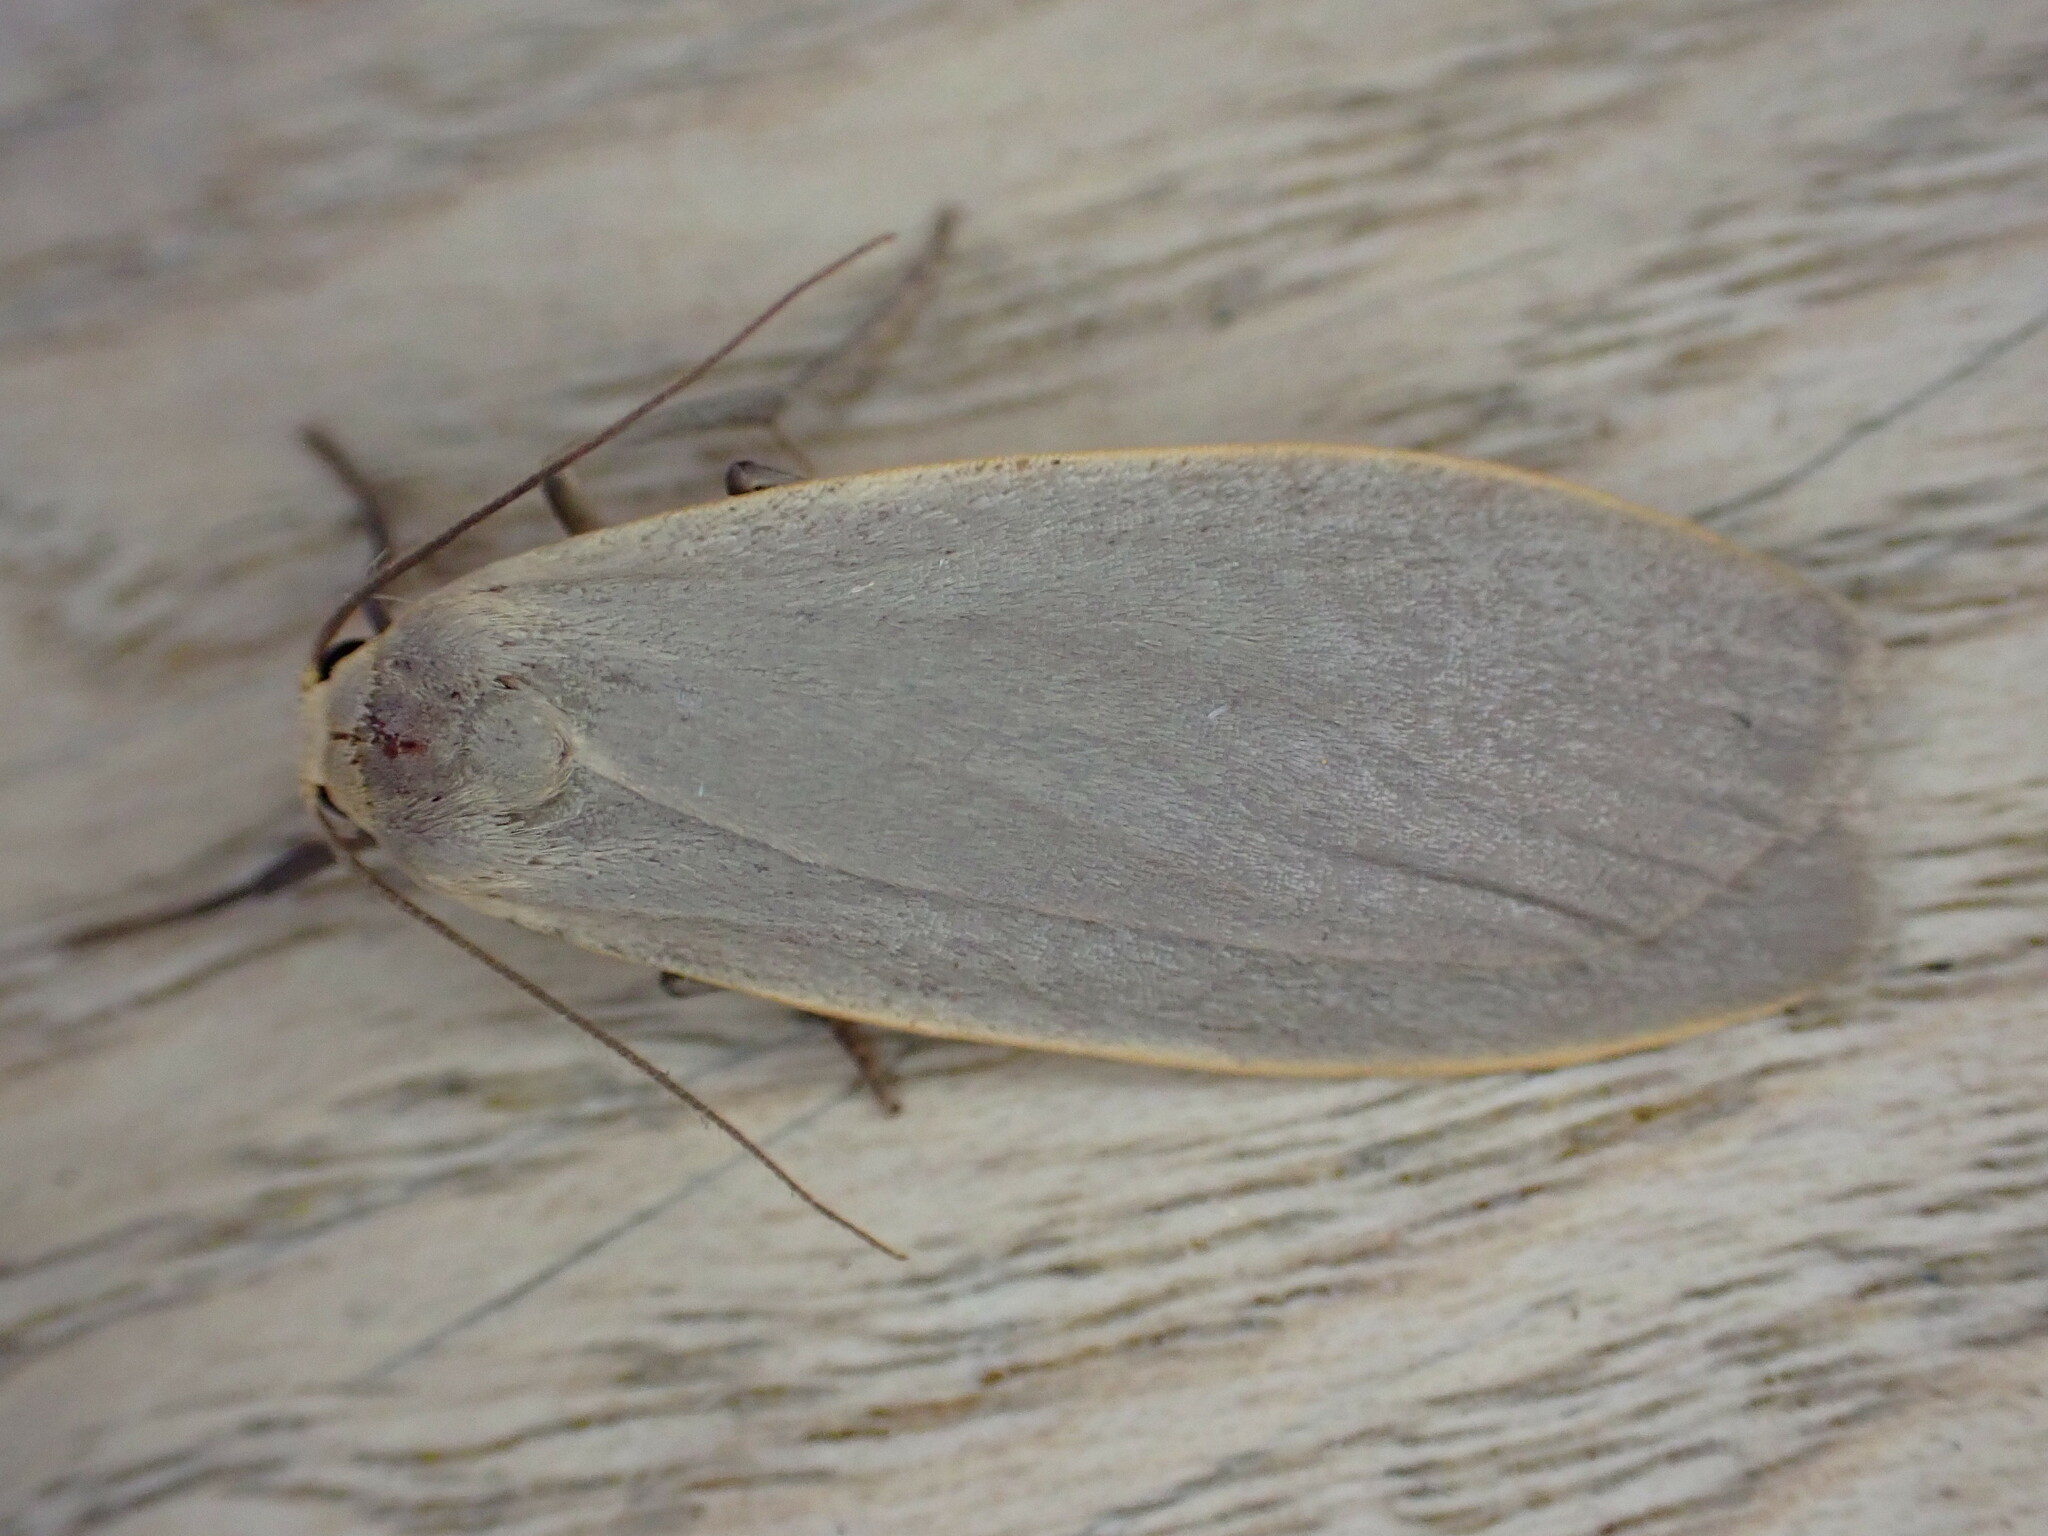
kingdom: Animalia
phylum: Arthropoda
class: Insecta
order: Lepidoptera
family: Erebidae
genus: Collita
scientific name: Collita griseola
